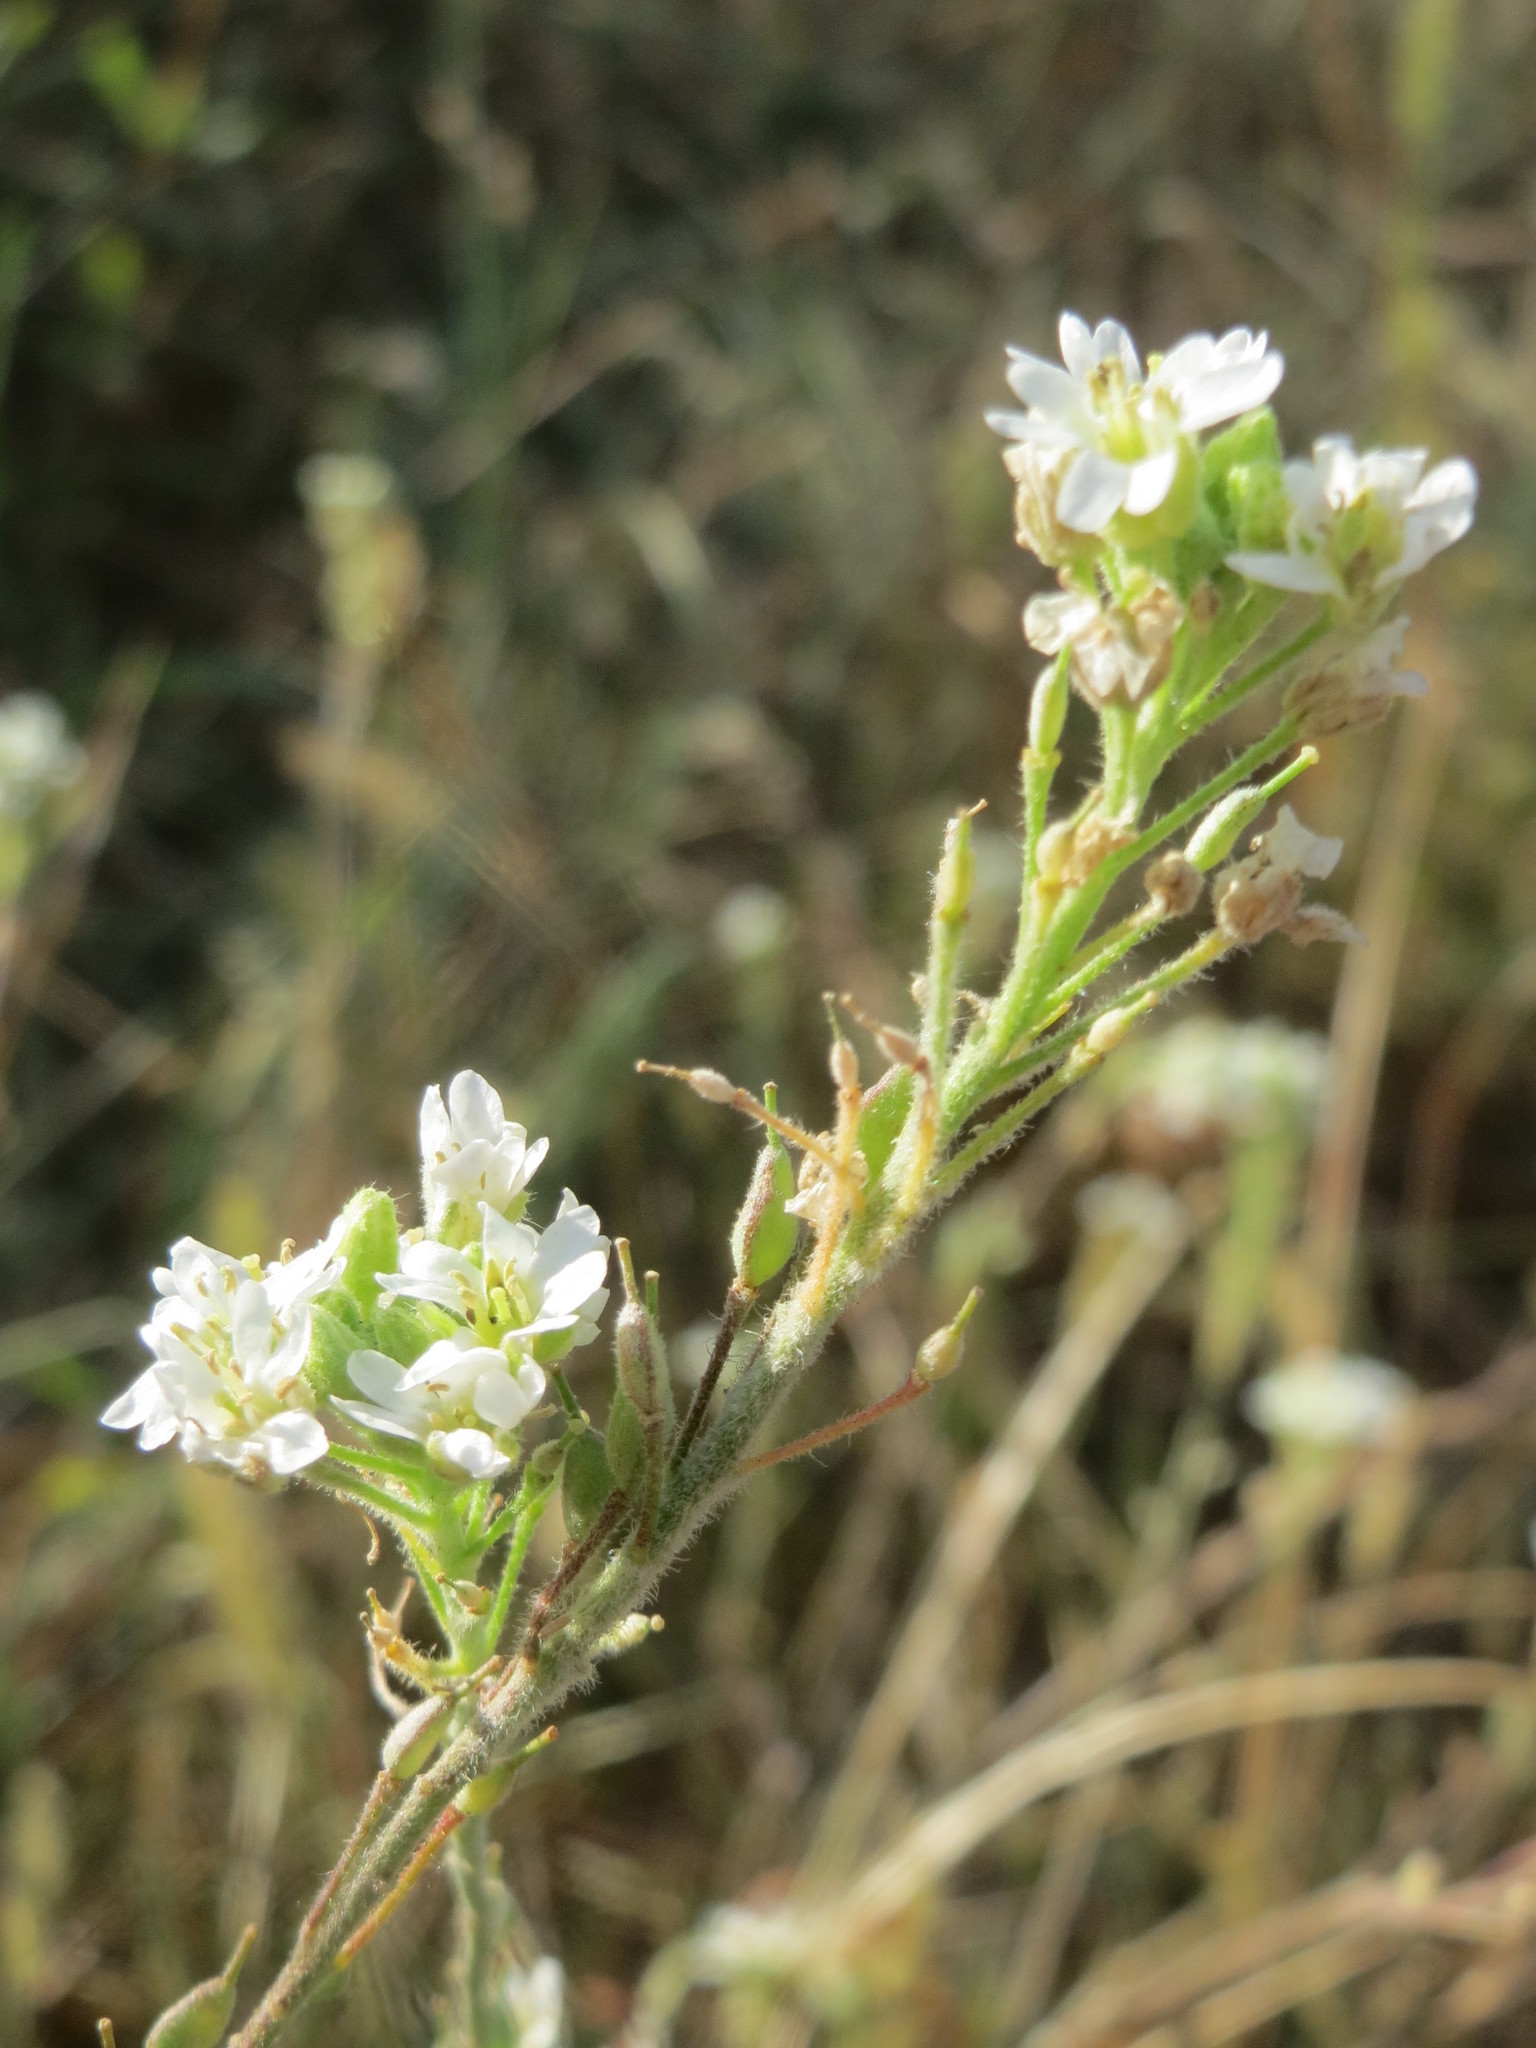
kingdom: Plantae
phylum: Tracheophyta
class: Magnoliopsida
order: Brassicales
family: Brassicaceae
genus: Berteroa
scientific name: Berteroa incana
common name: Hoary alison
